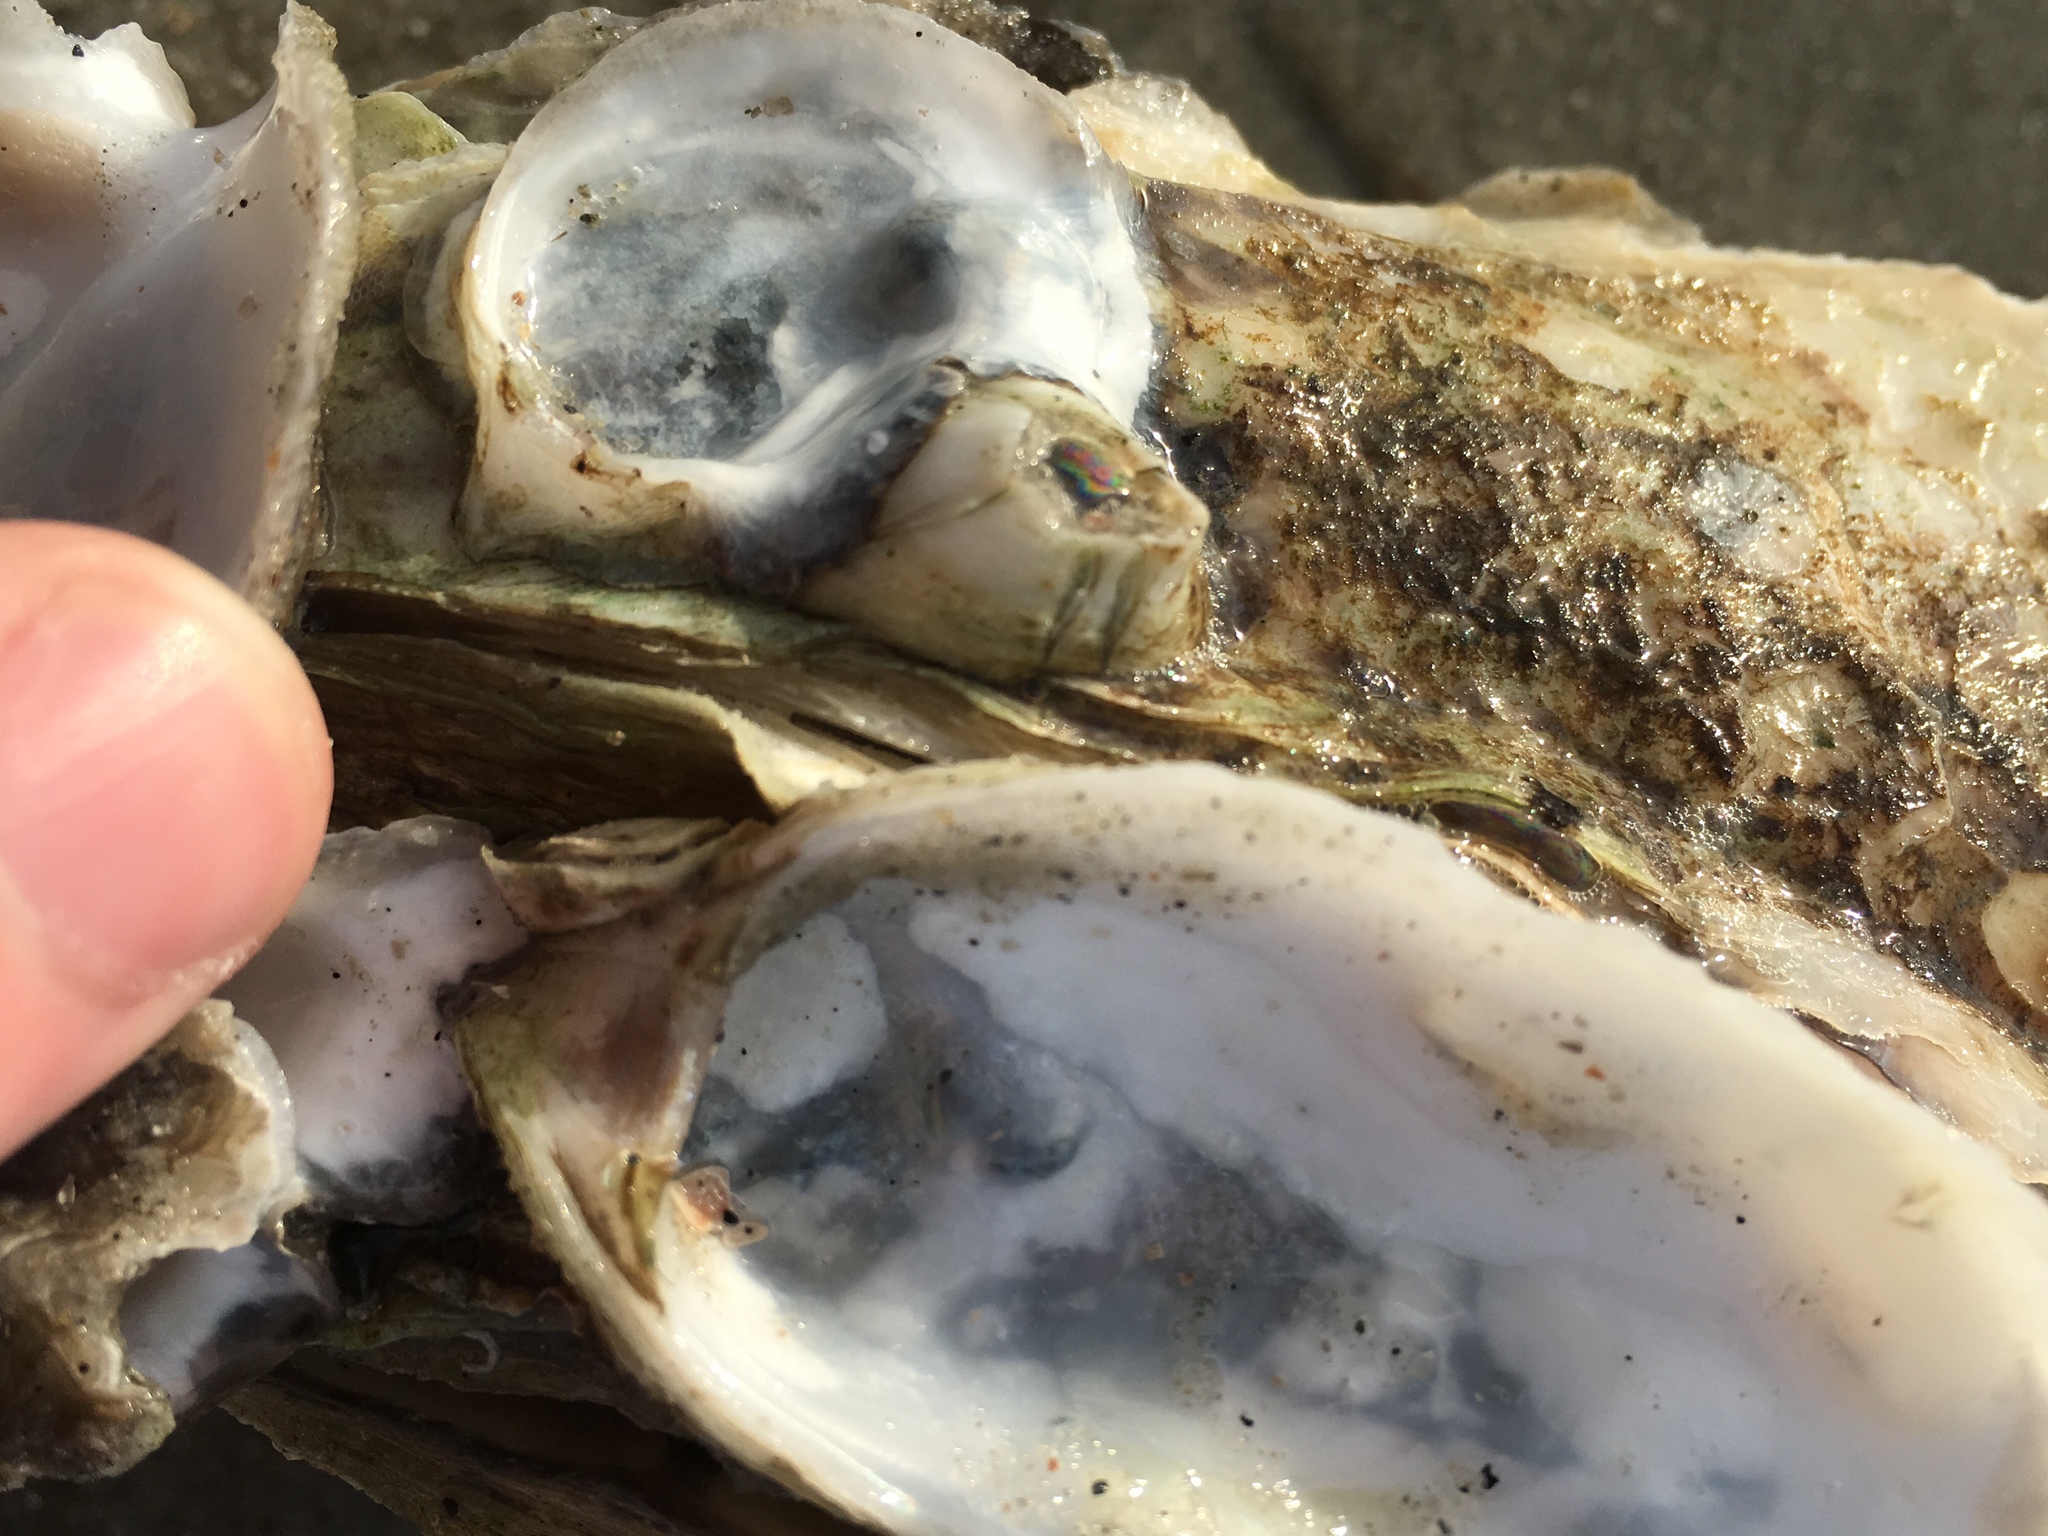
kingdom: Animalia
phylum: Mollusca
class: Bivalvia
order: Ostreida
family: Ostreidae
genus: Crassostrea
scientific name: Crassostrea virginica
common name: American oyster
